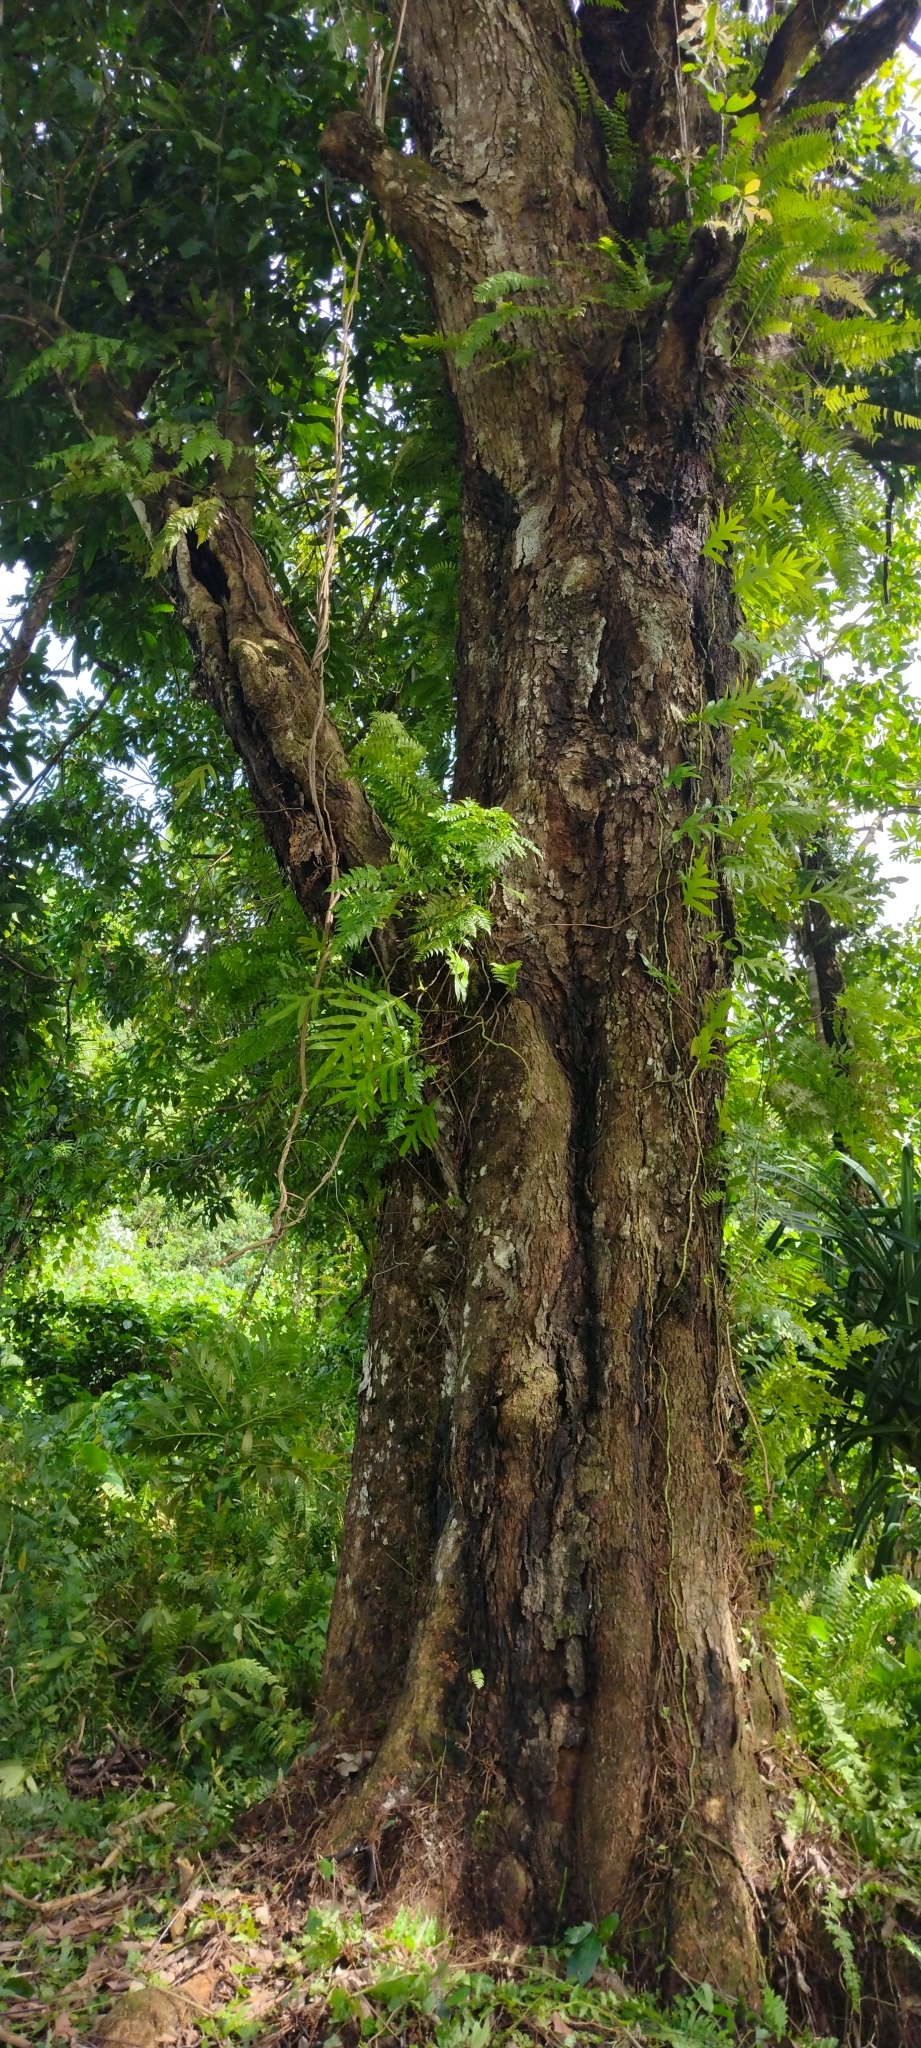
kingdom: Plantae
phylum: Tracheophyta
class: Magnoliopsida
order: Sapindales
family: Anacardiaceae
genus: Mangifera
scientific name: Mangifera indica
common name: Mango
